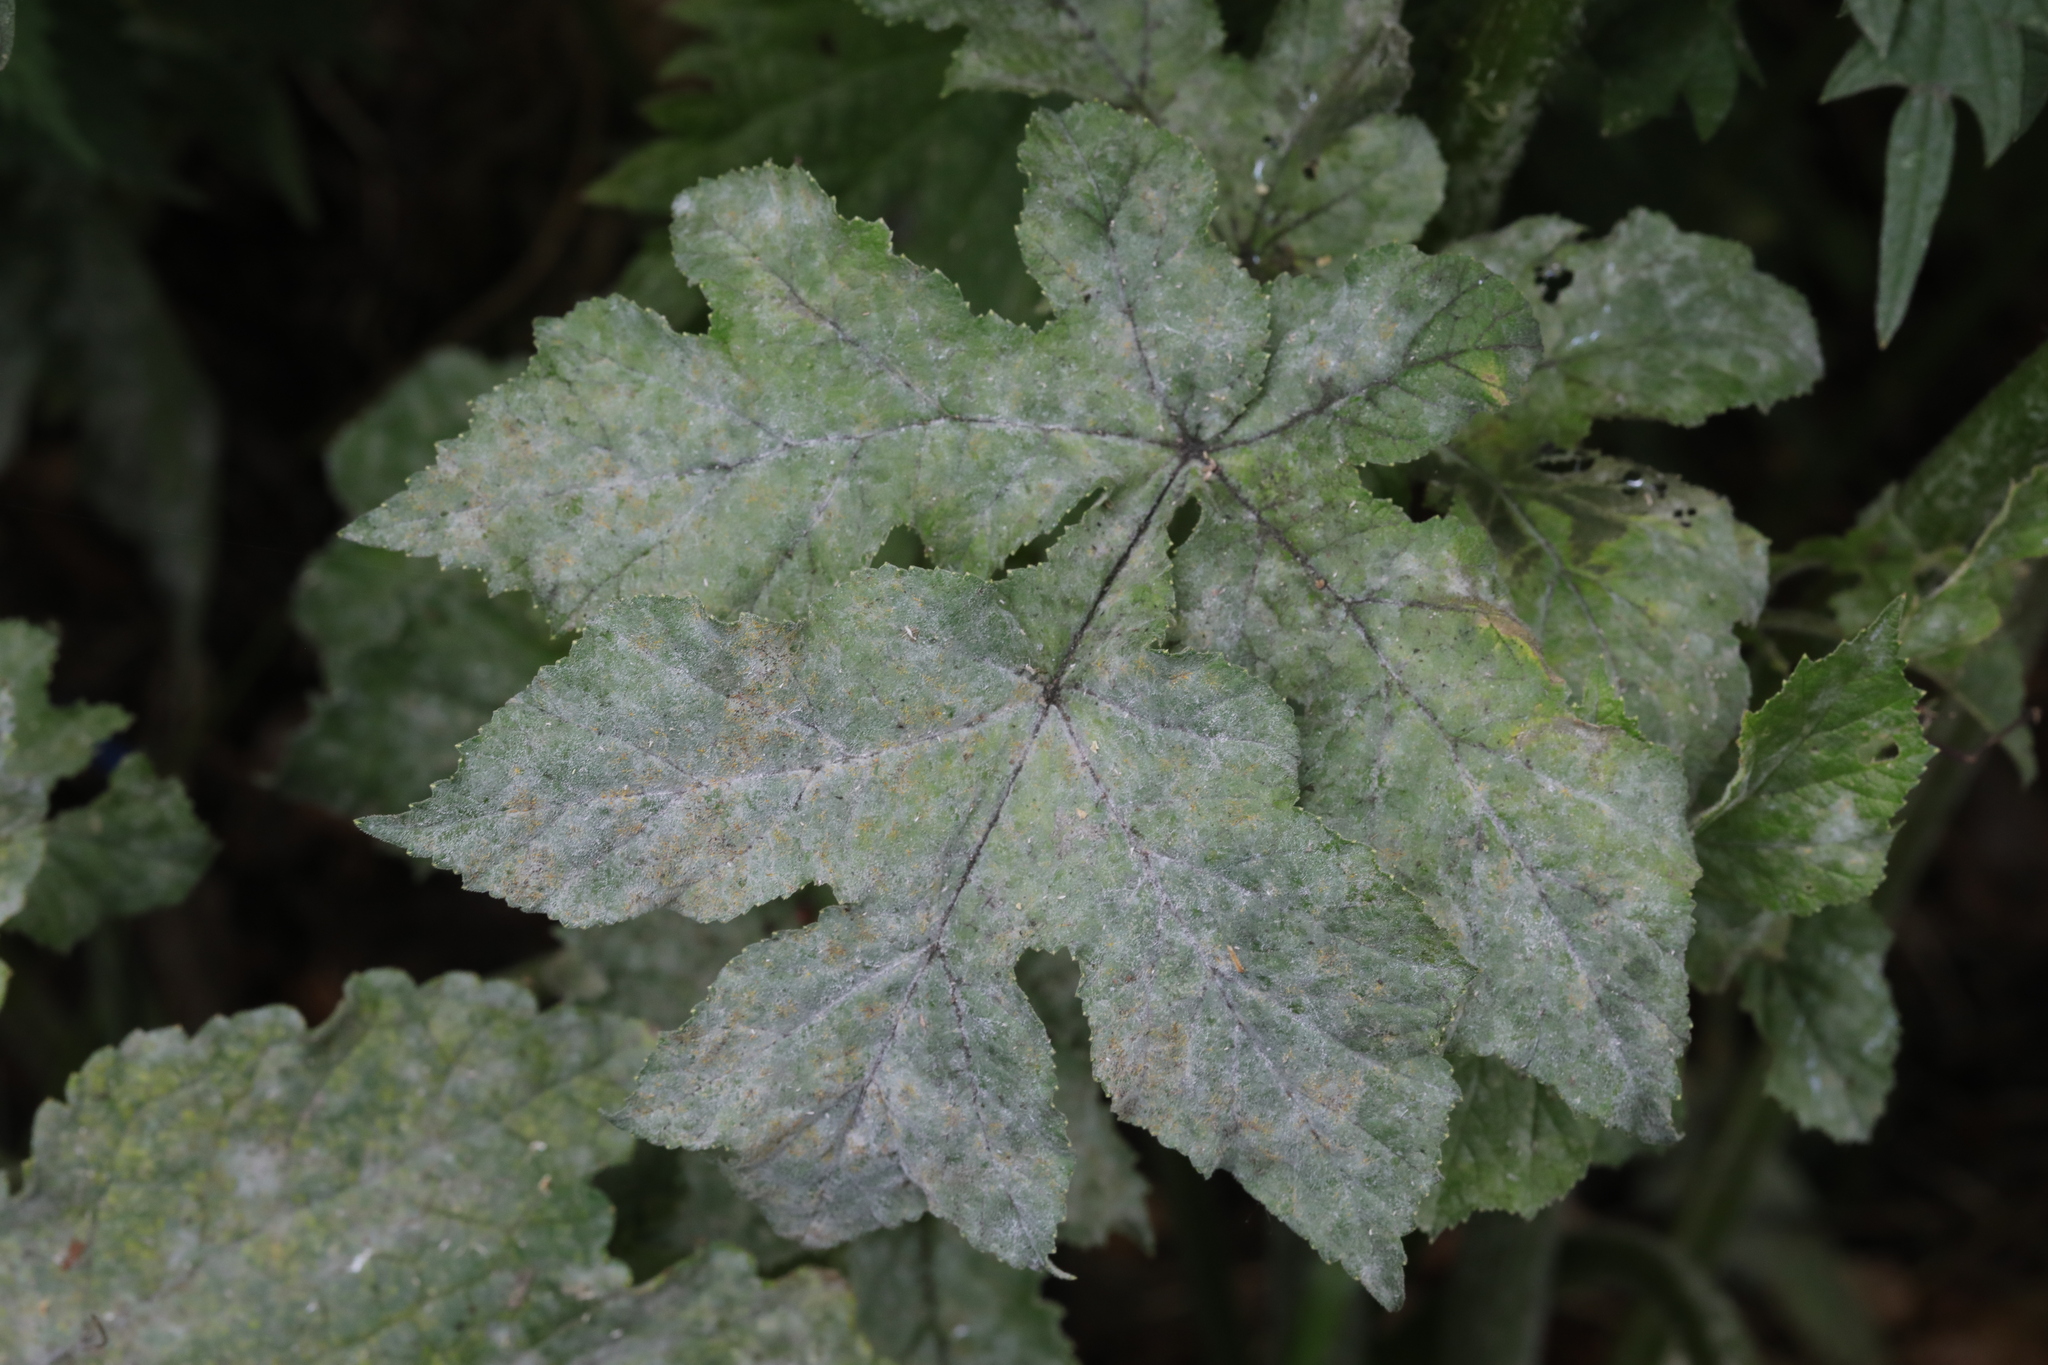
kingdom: Fungi
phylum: Ascomycota
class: Leotiomycetes
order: Helotiales
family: Erysiphaceae
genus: Erysiphe
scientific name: Erysiphe heraclei
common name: Umbellifer mildew
